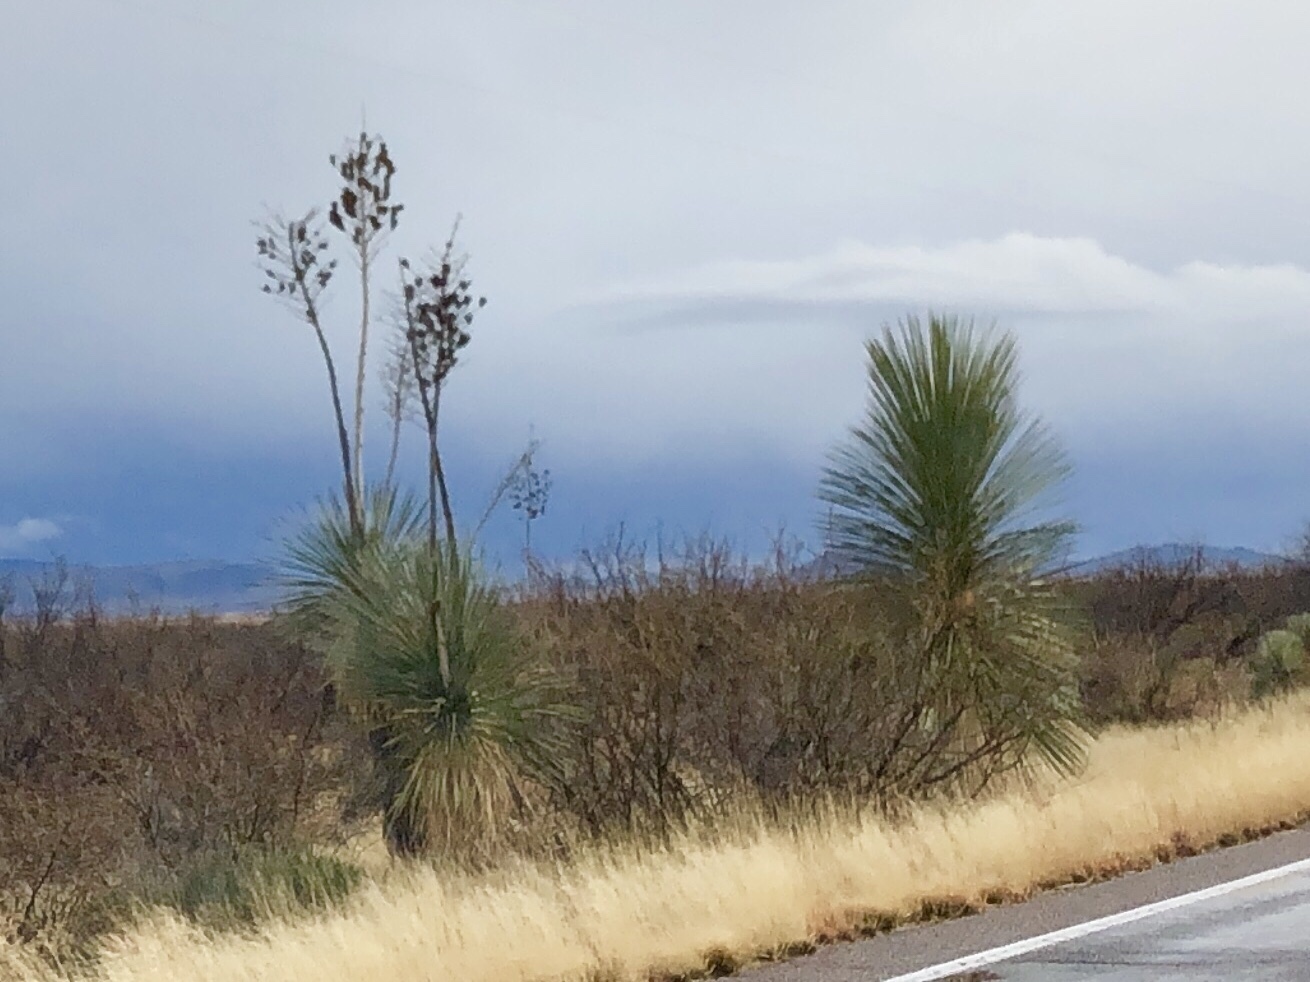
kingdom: Plantae
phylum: Tracheophyta
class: Liliopsida
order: Asparagales
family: Asparagaceae
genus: Yucca
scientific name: Yucca elata
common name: Palmella
